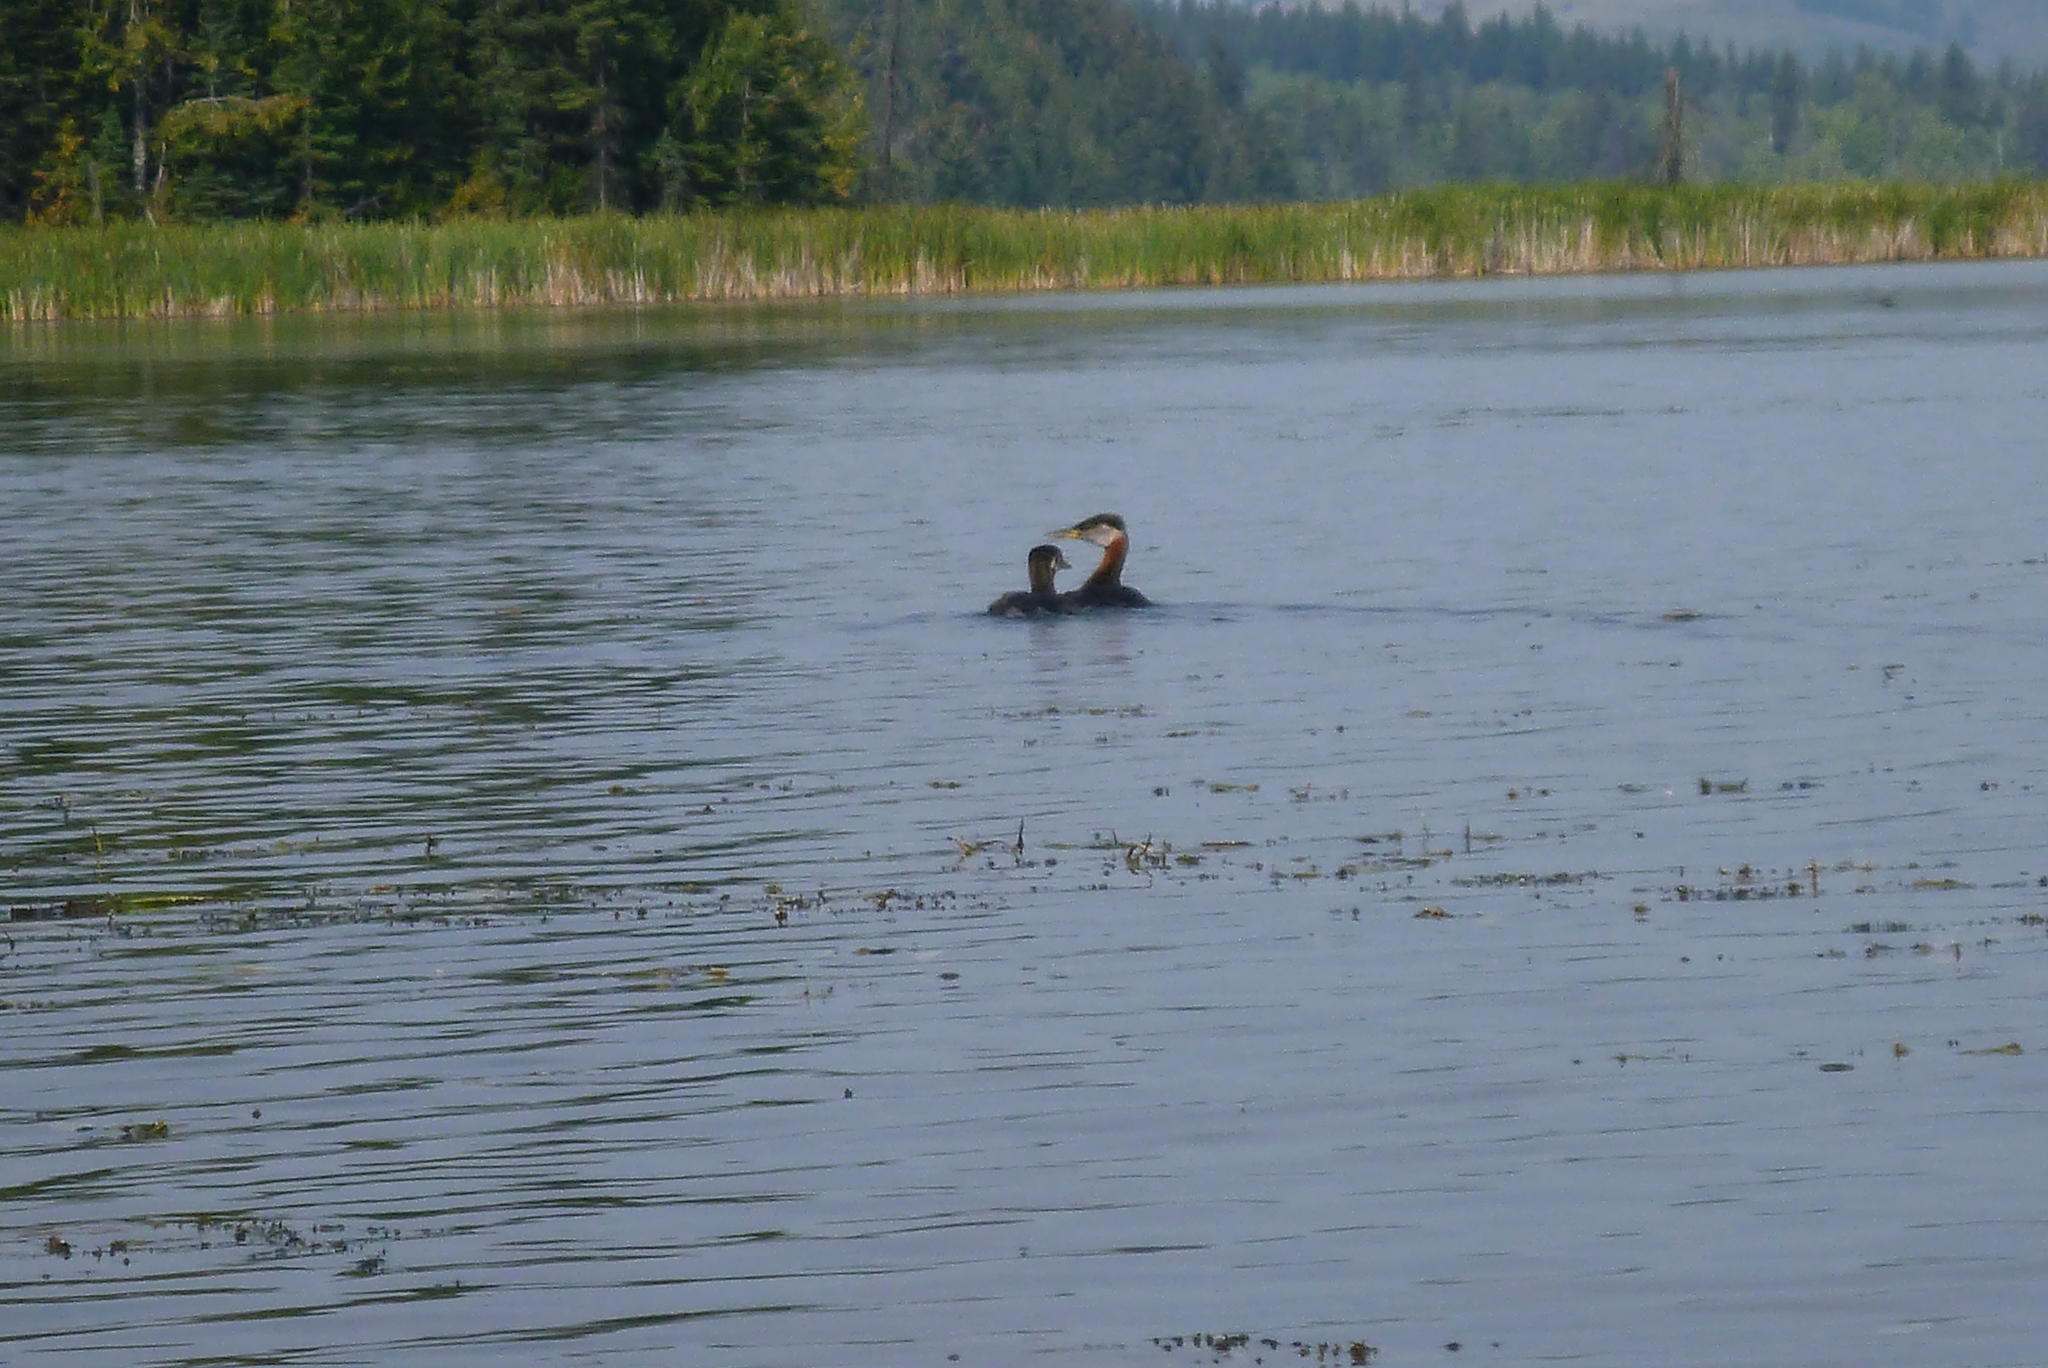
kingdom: Animalia
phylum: Chordata
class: Aves
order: Podicipediformes
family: Podicipedidae
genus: Podiceps
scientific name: Podiceps grisegena
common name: Red-necked grebe
